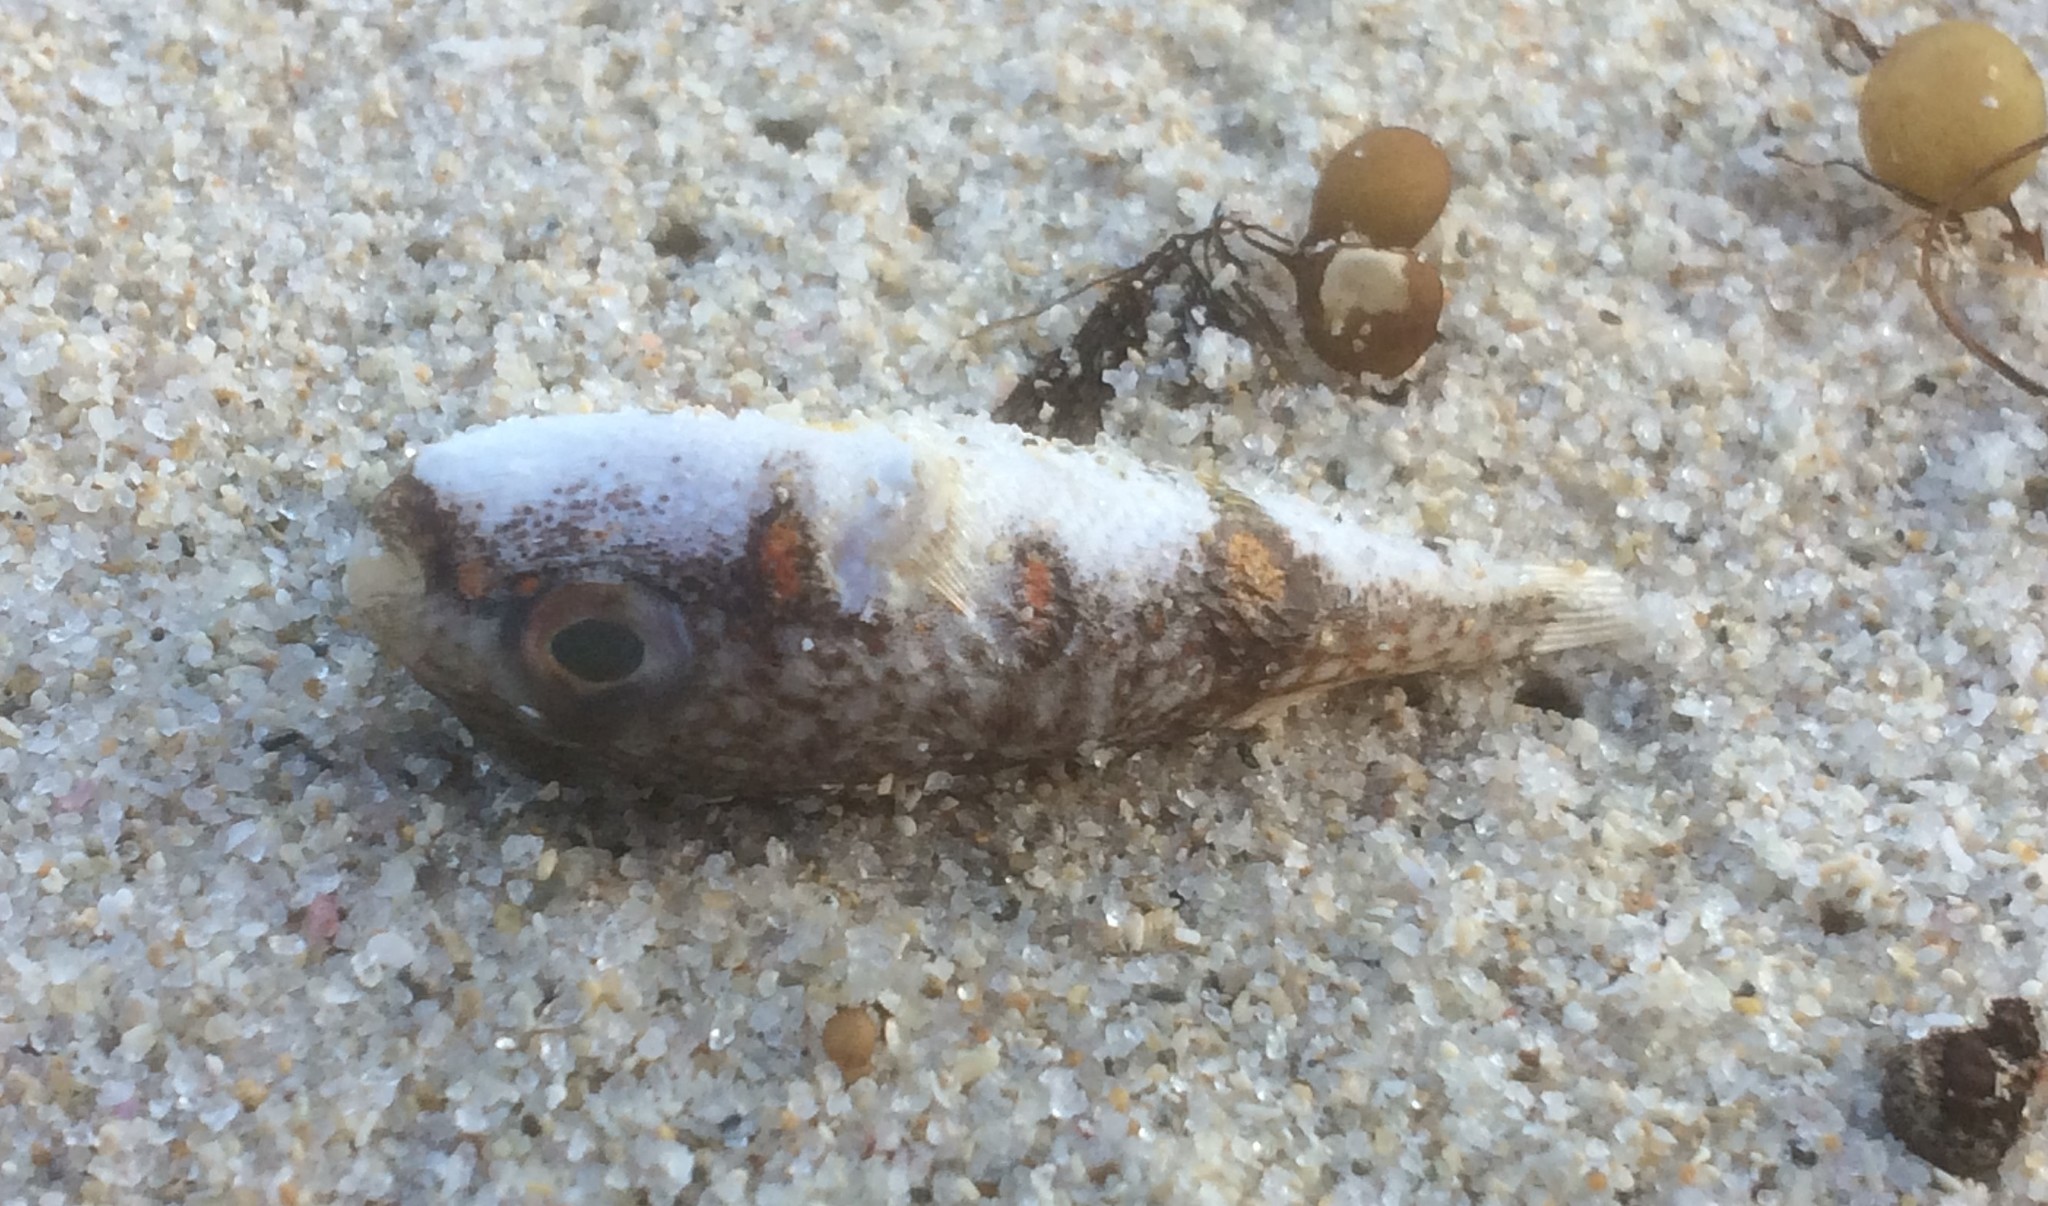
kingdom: Animalia
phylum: Chordata
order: Tetraodontiformes
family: Tetraodontidae
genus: Polyspina
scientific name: Polyspina piosae
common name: Orange-barred pufferfish
